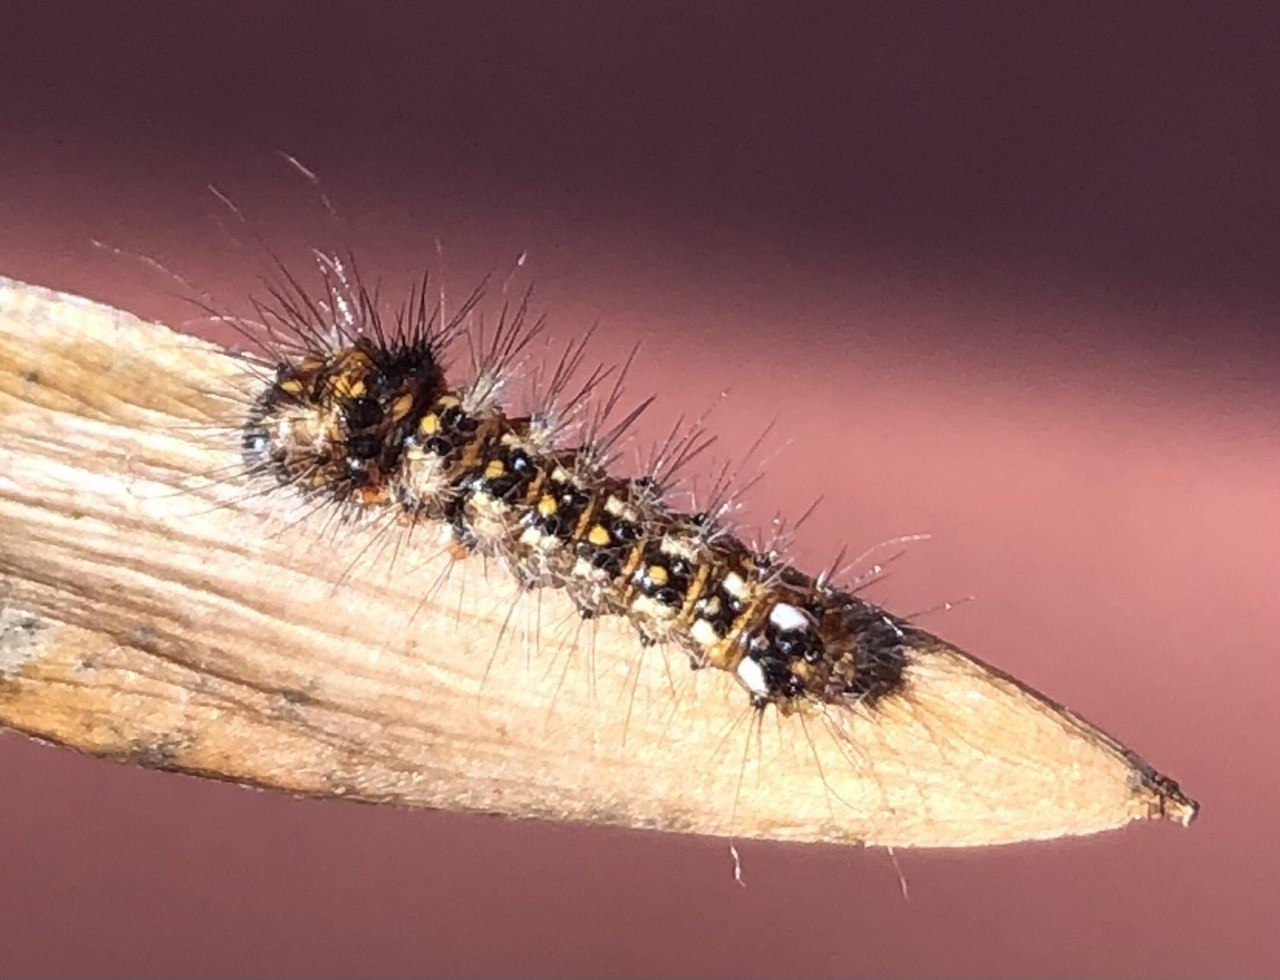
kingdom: Animalia
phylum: Arthropoda
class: Insecta
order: Lepidoptera
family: Noctuidae
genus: Acronicta
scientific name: Acronicta rumicis
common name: Knot grass
